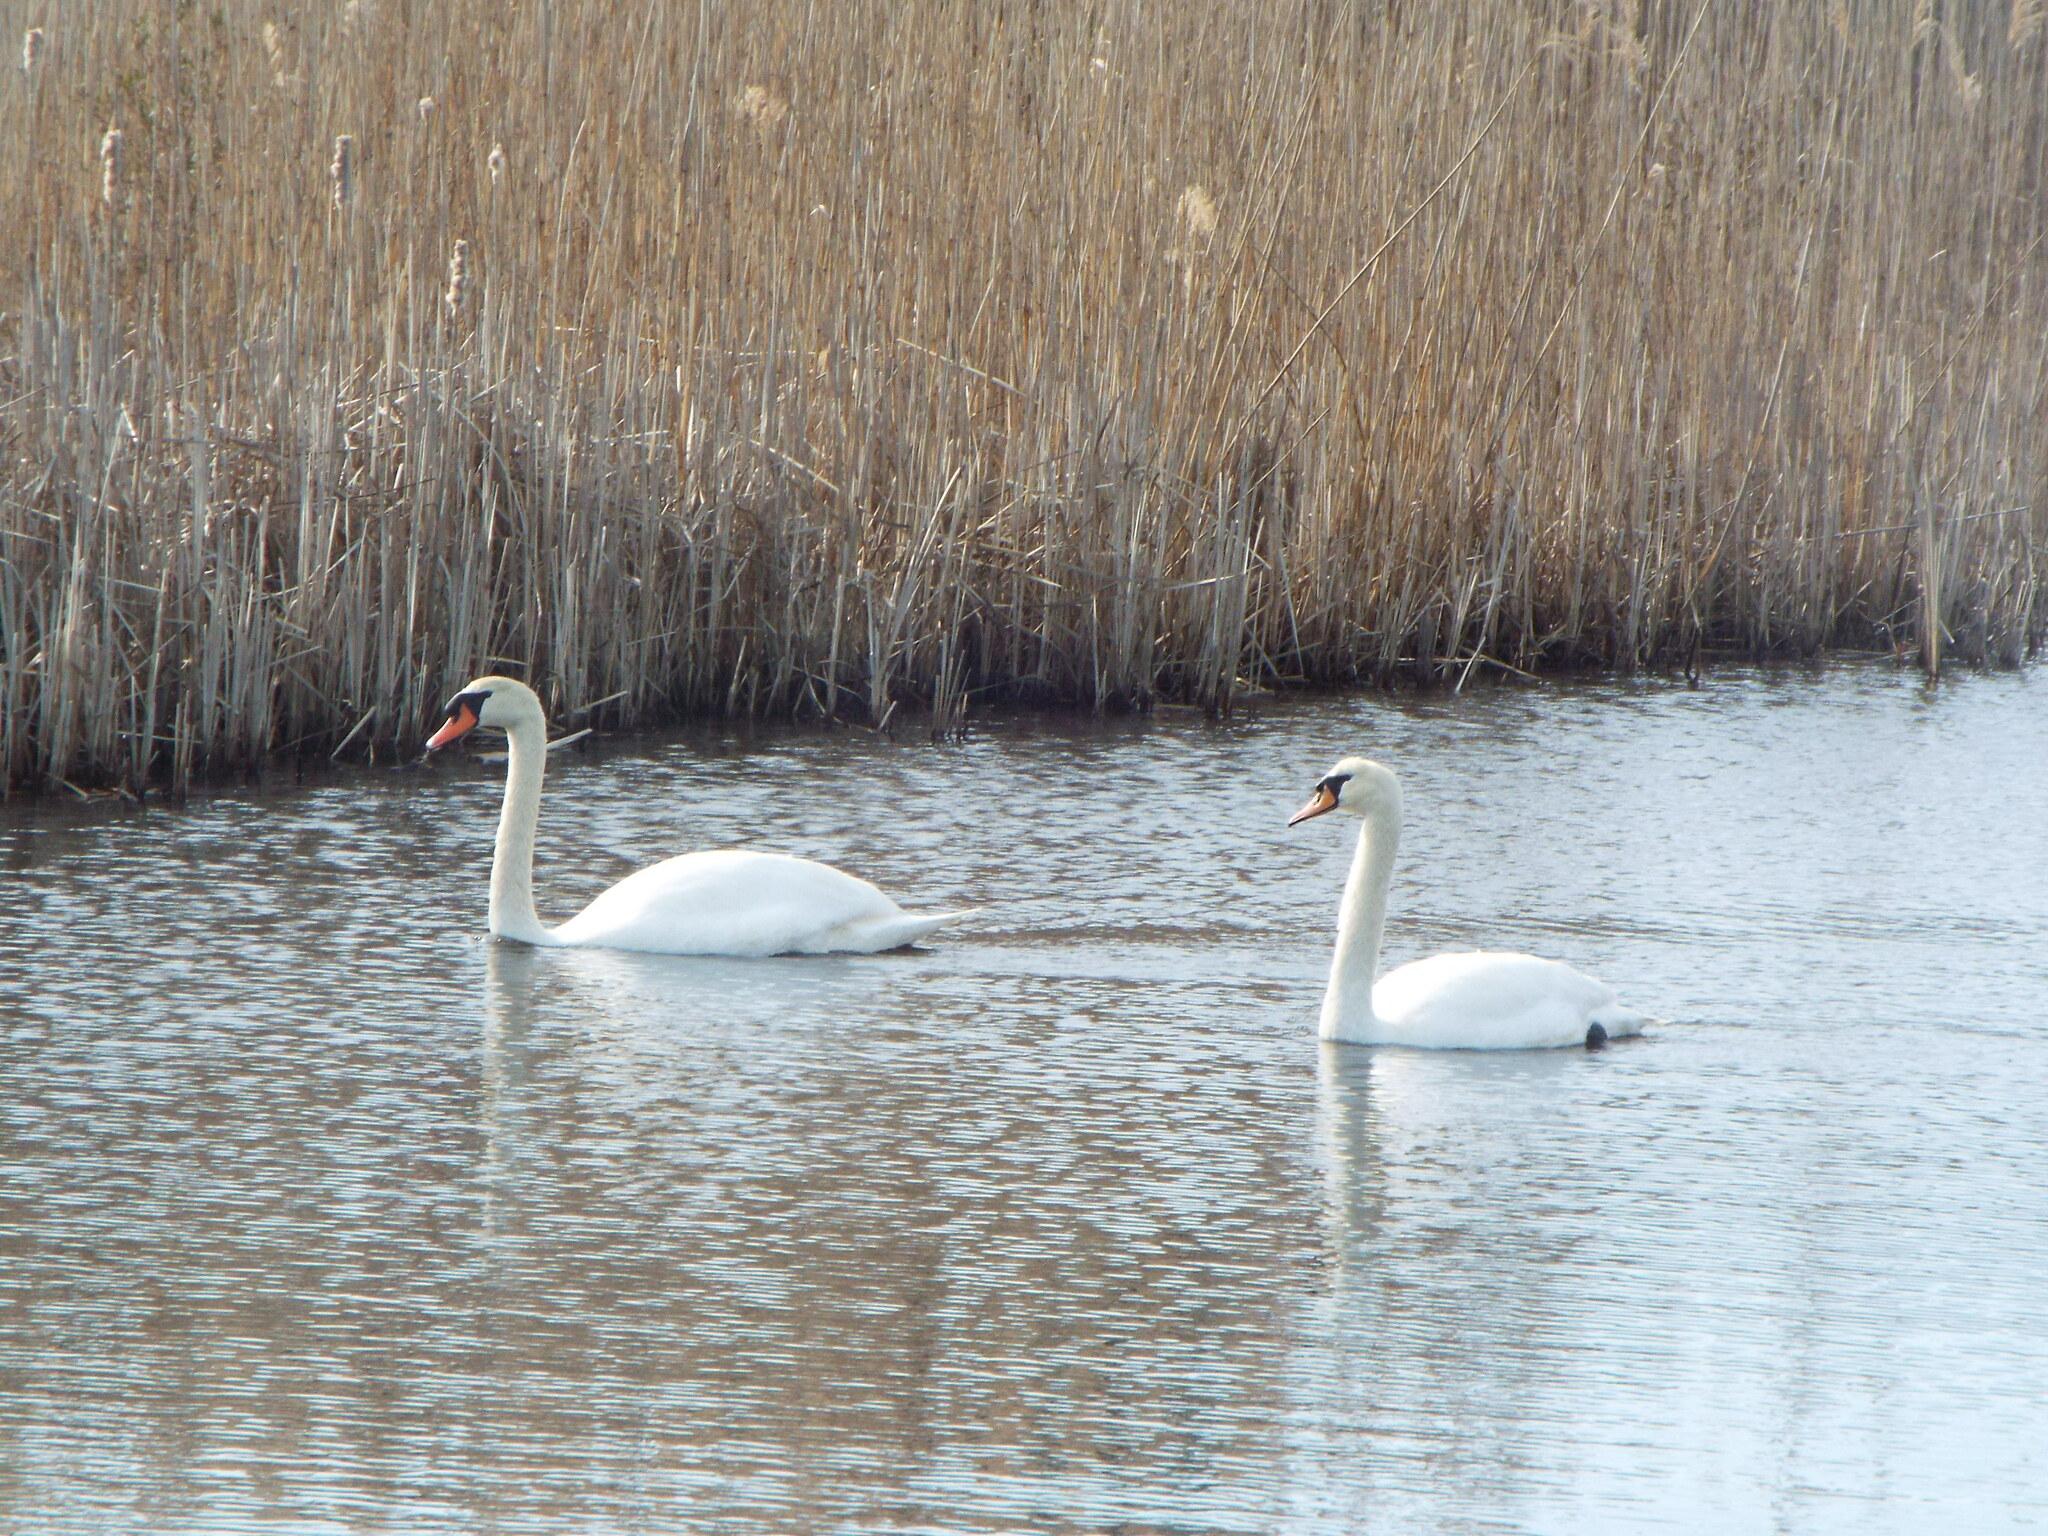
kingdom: Animalia
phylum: Chordata
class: Aves
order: Anseriformes
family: Anatidae
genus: Cygnus
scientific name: Cygnus olor
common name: Mute swan
